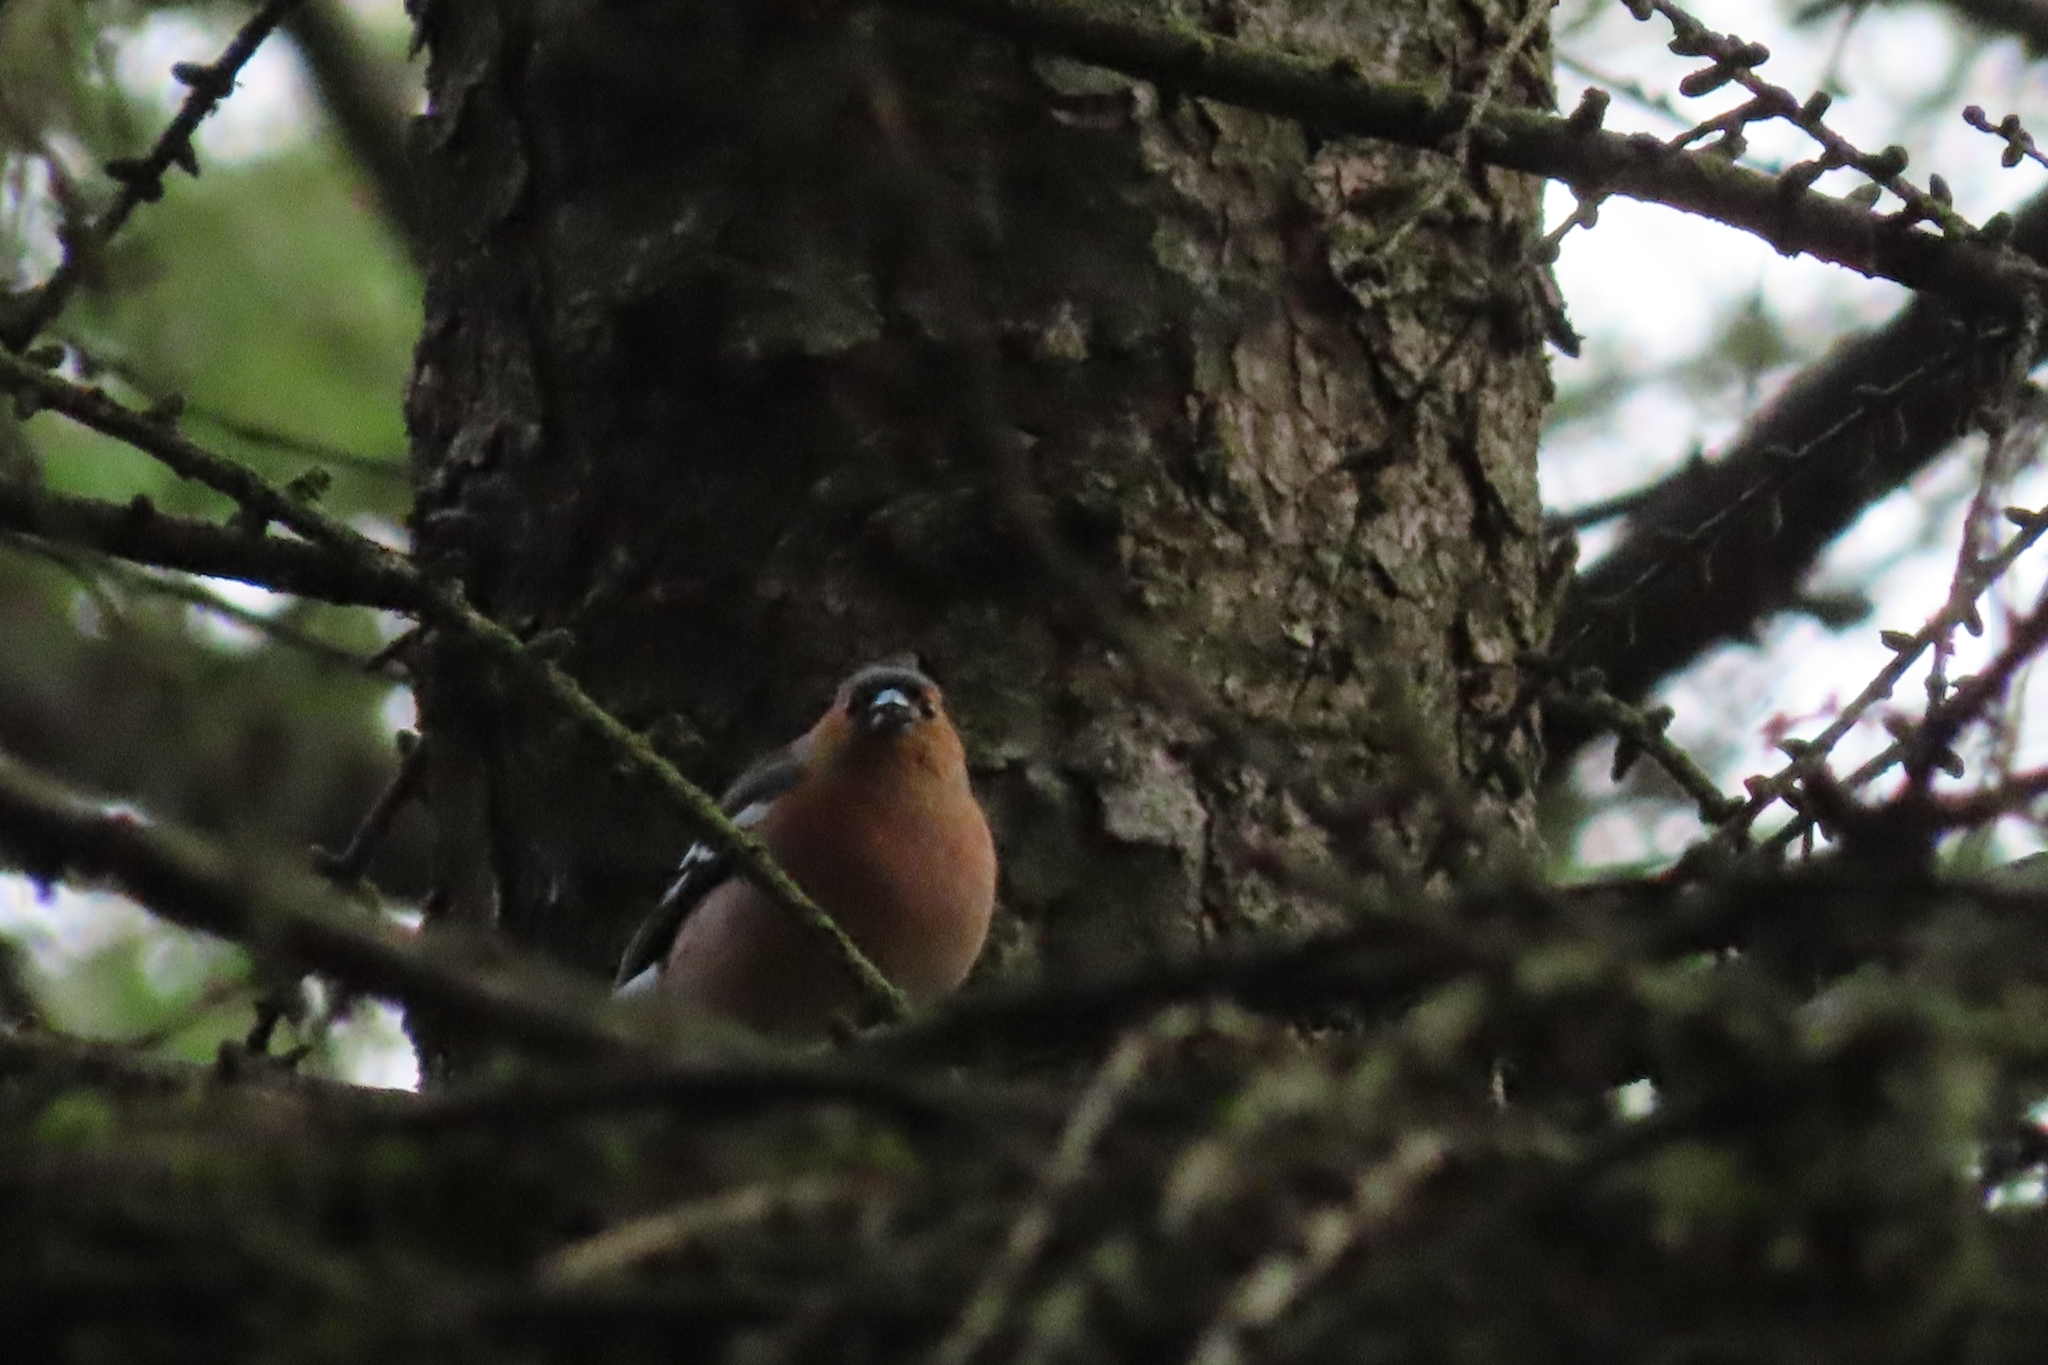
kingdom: Animalia
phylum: Chordata
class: Aves
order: Passeriformes
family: Fringillidae
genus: Fringilla
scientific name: Fringilla coelebs
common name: Common chaffinch
